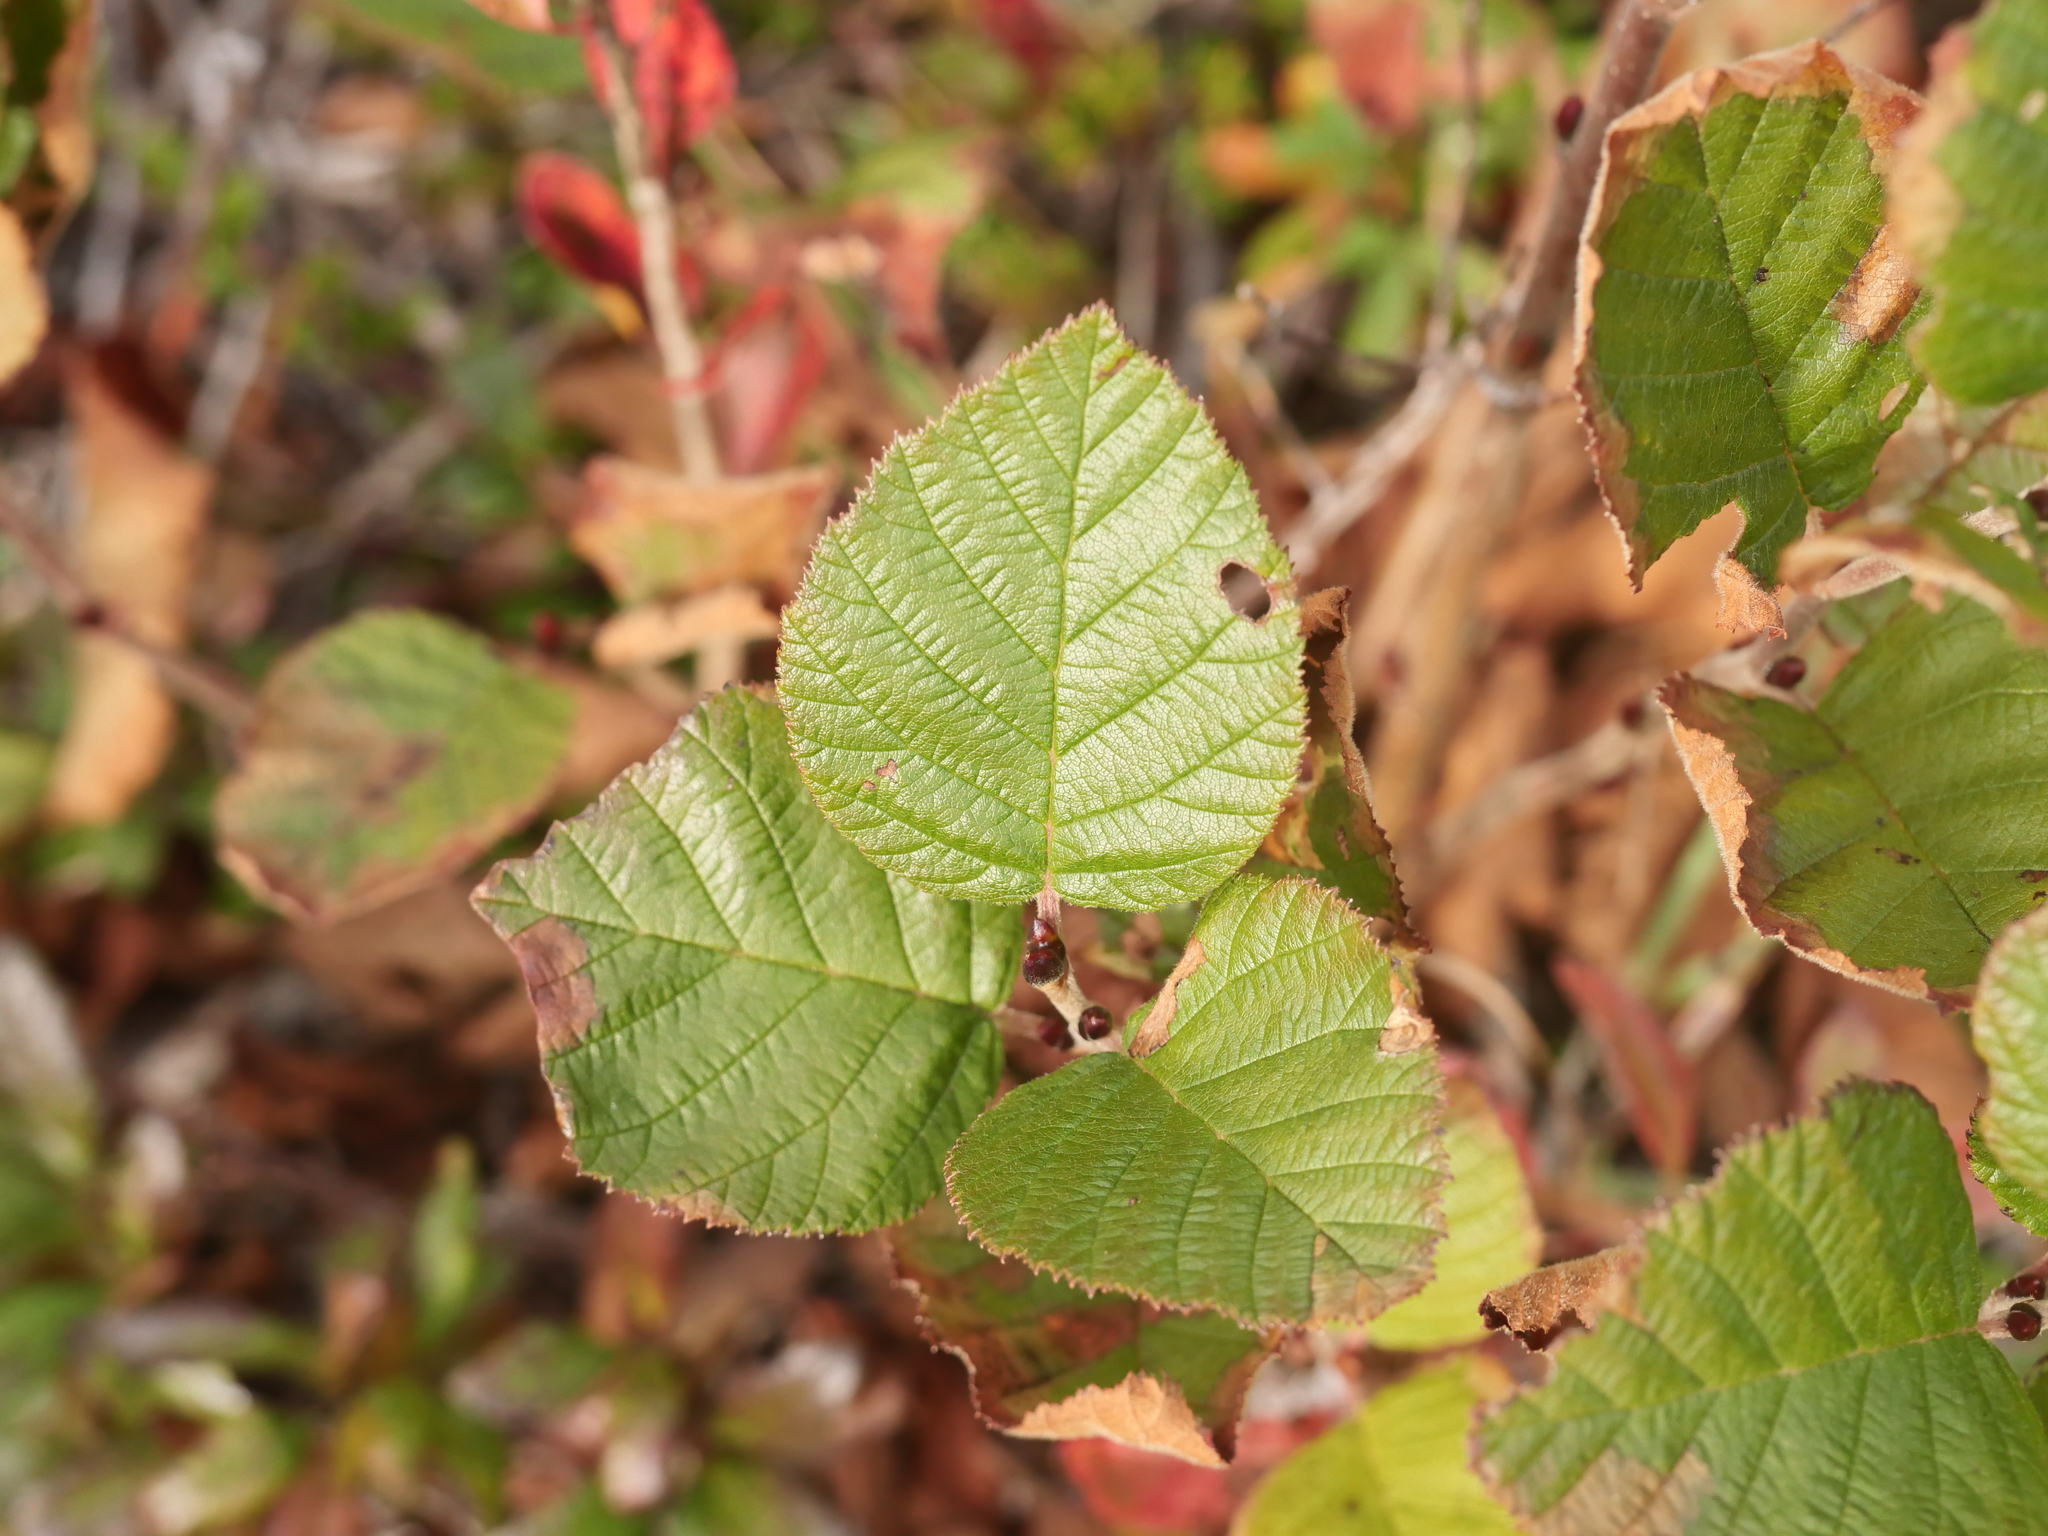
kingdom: Plantae
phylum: Tracheophyta
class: Magnoliopsida
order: Fagales
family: Betulaceae
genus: Alnus
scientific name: Alnus alnobetula
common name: Green alder
